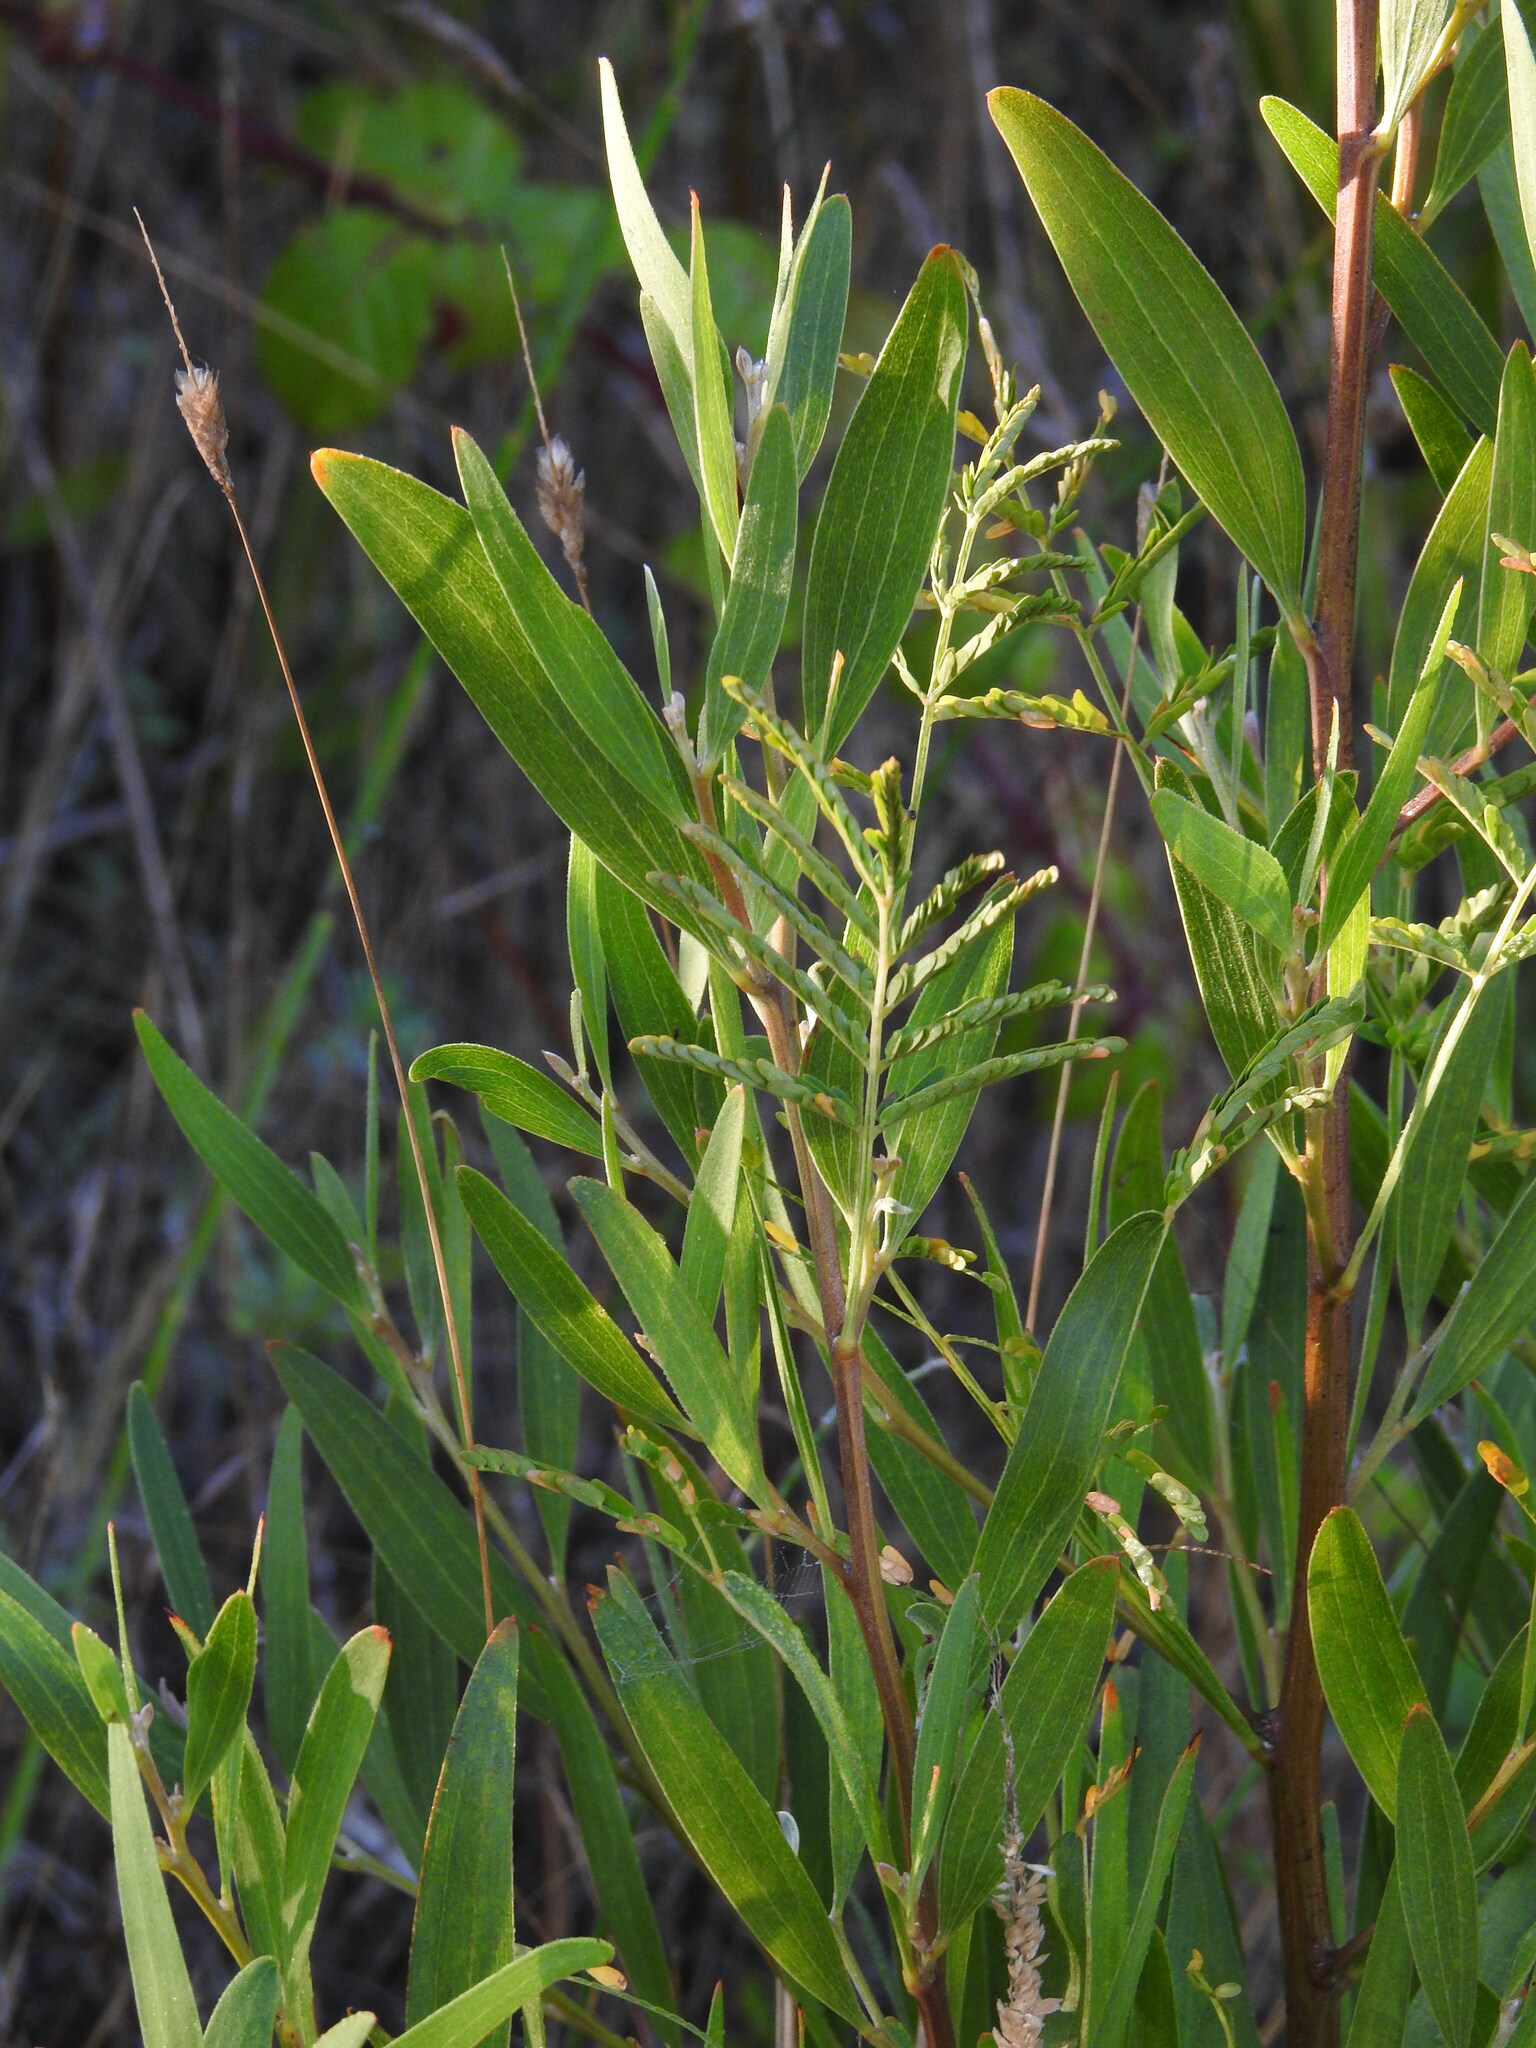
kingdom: Plantae
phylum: Tracheophyta
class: Magnoliopsida
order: Fabales
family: Fabaceae
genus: Acacia
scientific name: Acacia melanoxylon
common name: Blackwood
